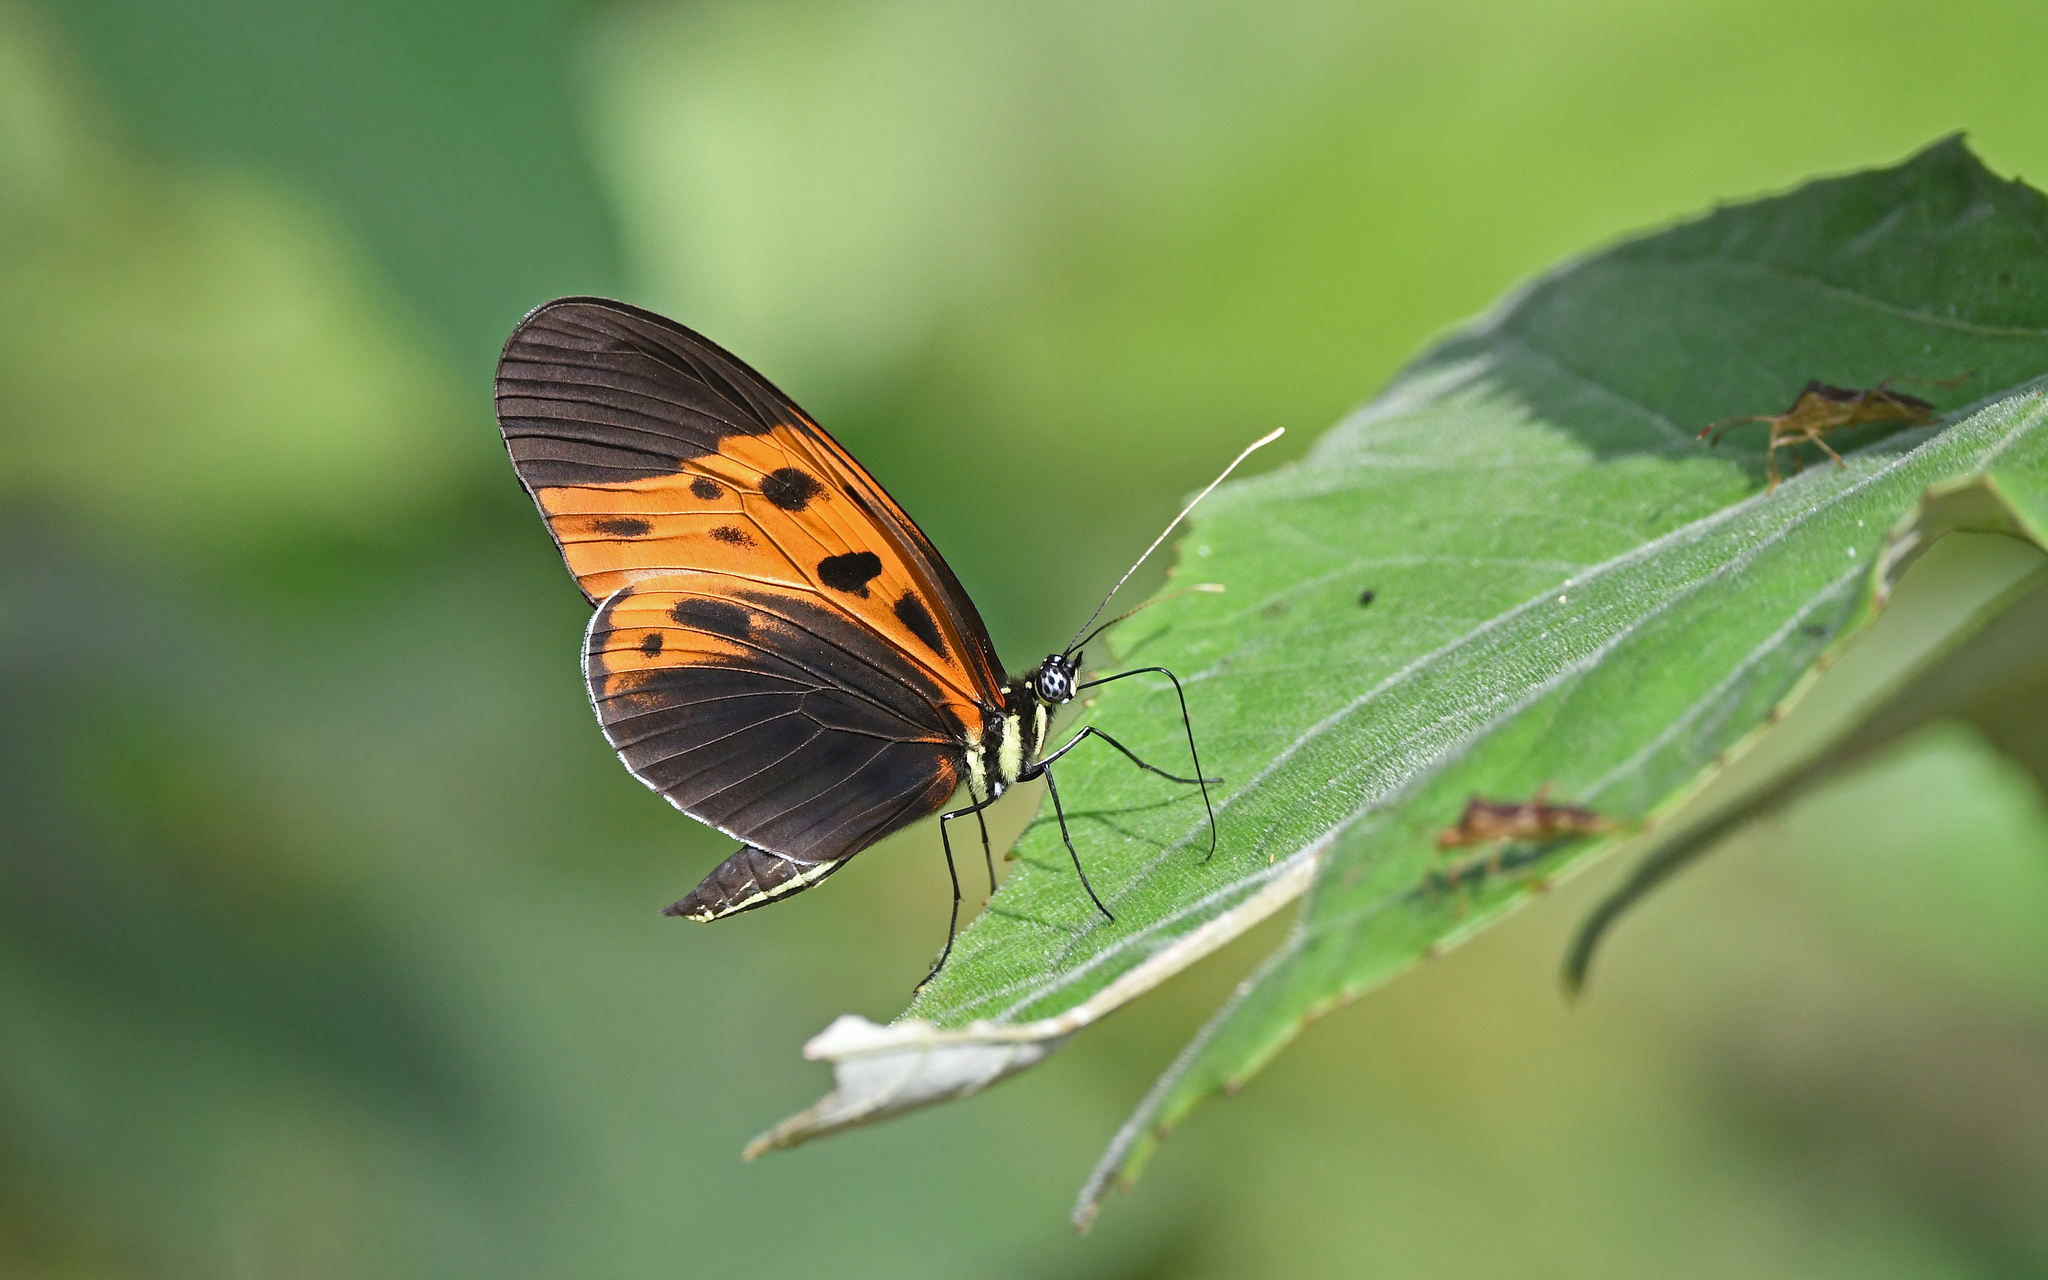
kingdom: Animalia
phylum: Arthropoda
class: Insecta
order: Lepidoptera
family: Nymphalidae
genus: Heliconius
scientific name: Heliconius numatus
